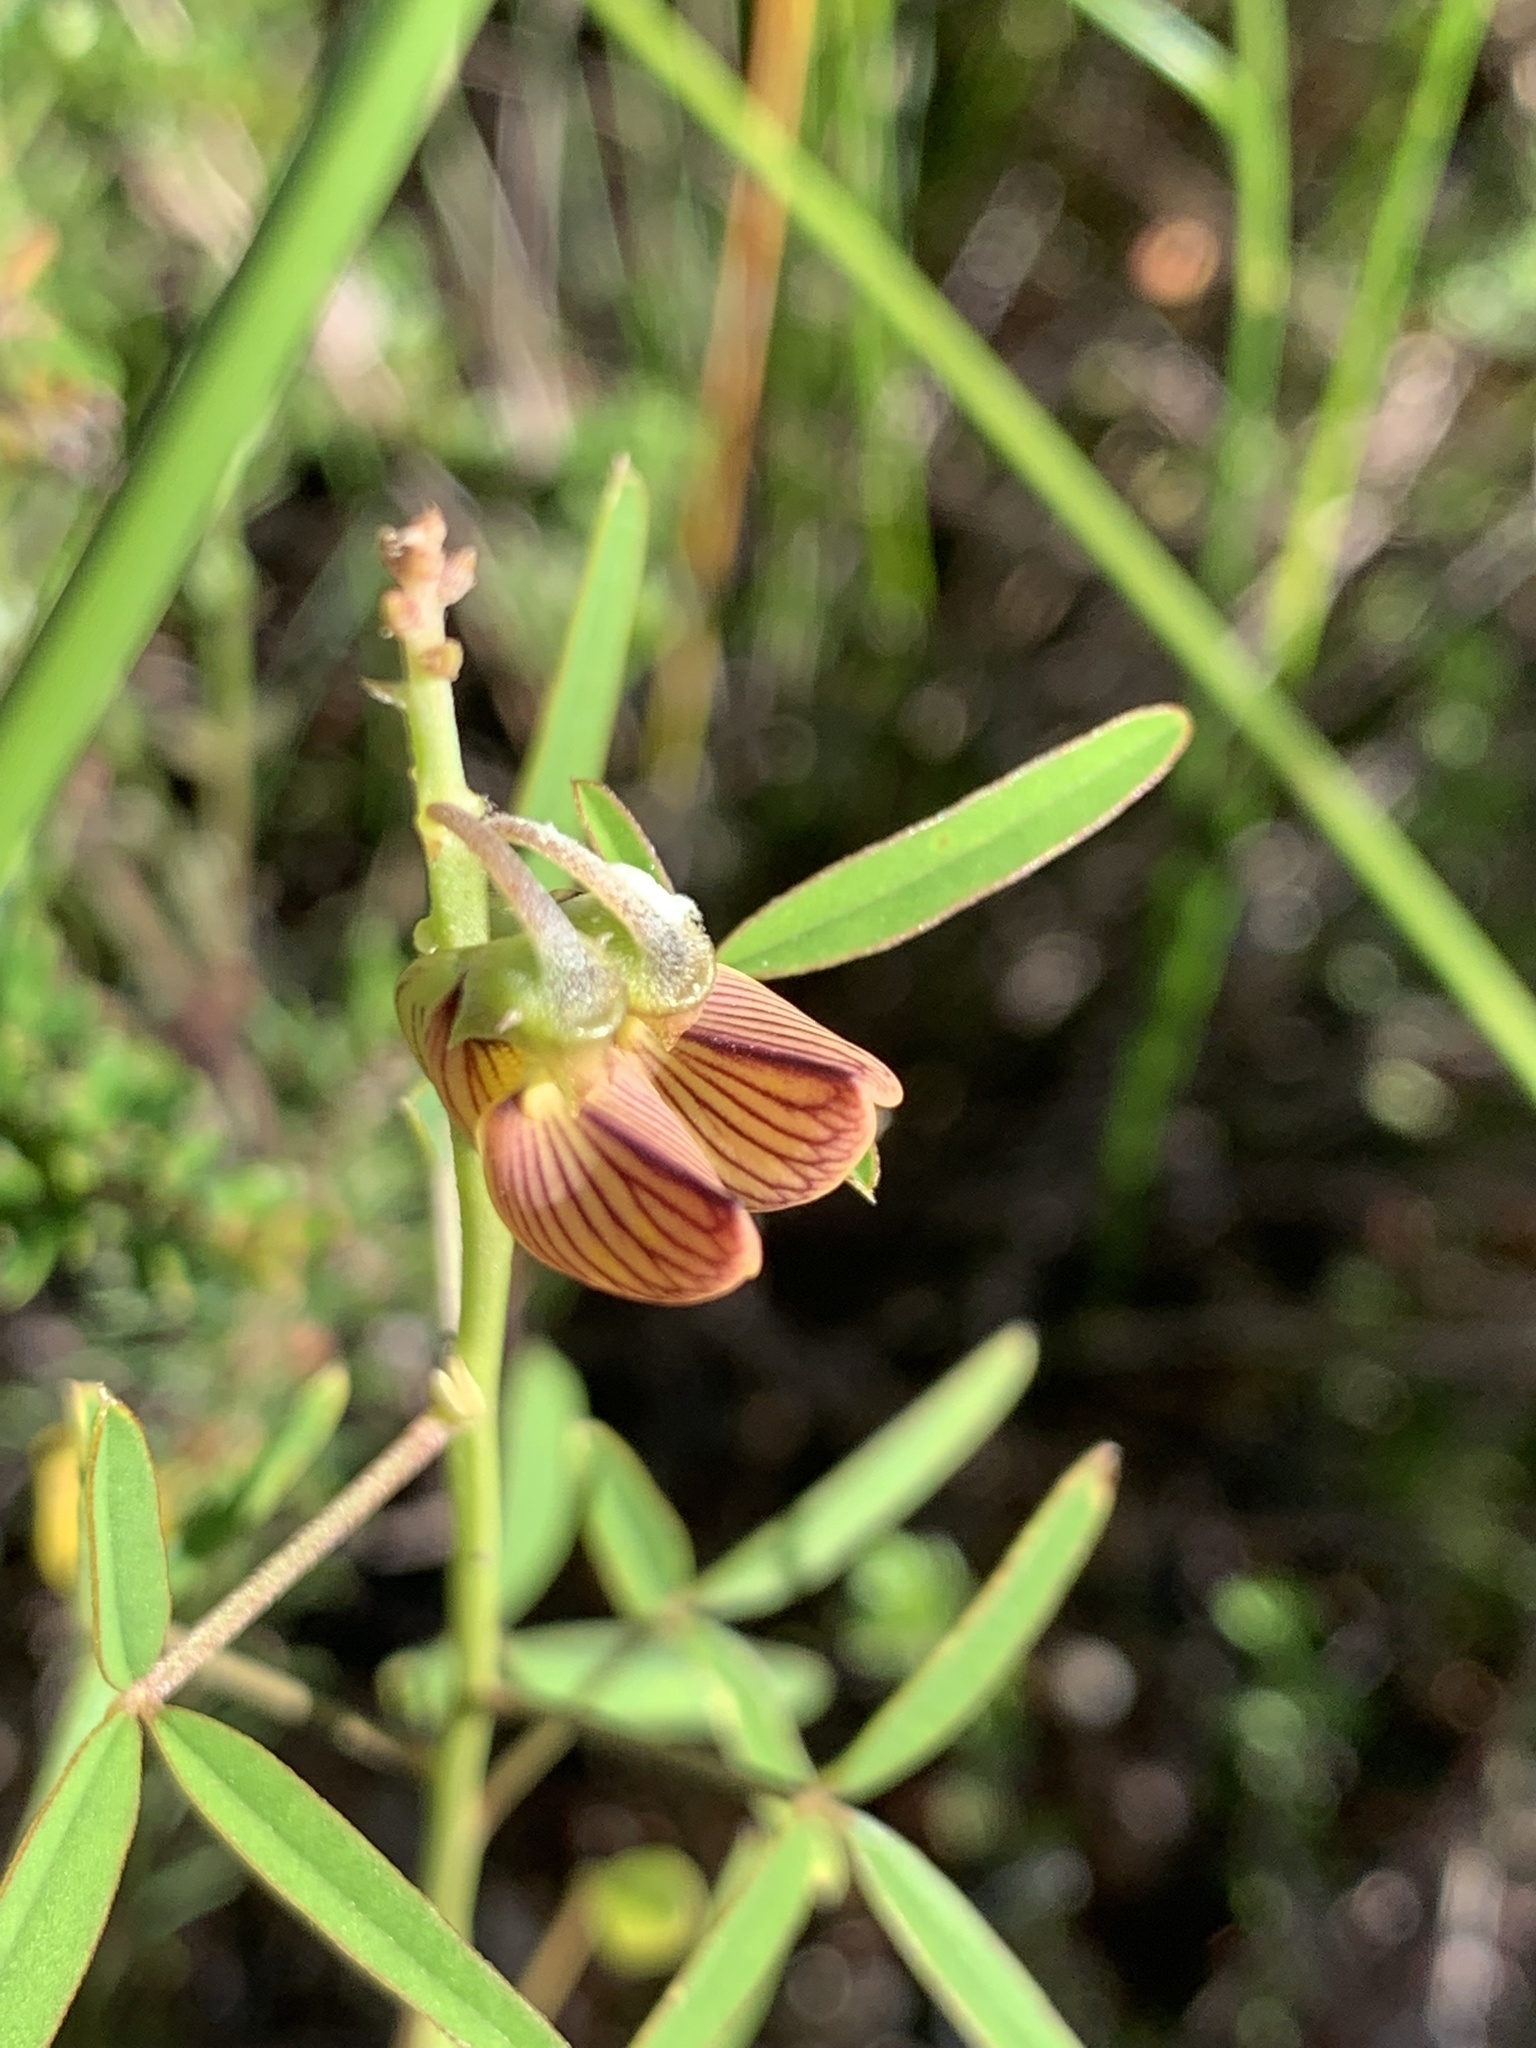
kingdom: Plantae
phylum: Tracheophyta
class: Magnoliopsida
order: Fabales
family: Fabaceae
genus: Crotalaria
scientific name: Crotalaria lanceolata
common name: Lanceleaf rattlebox
